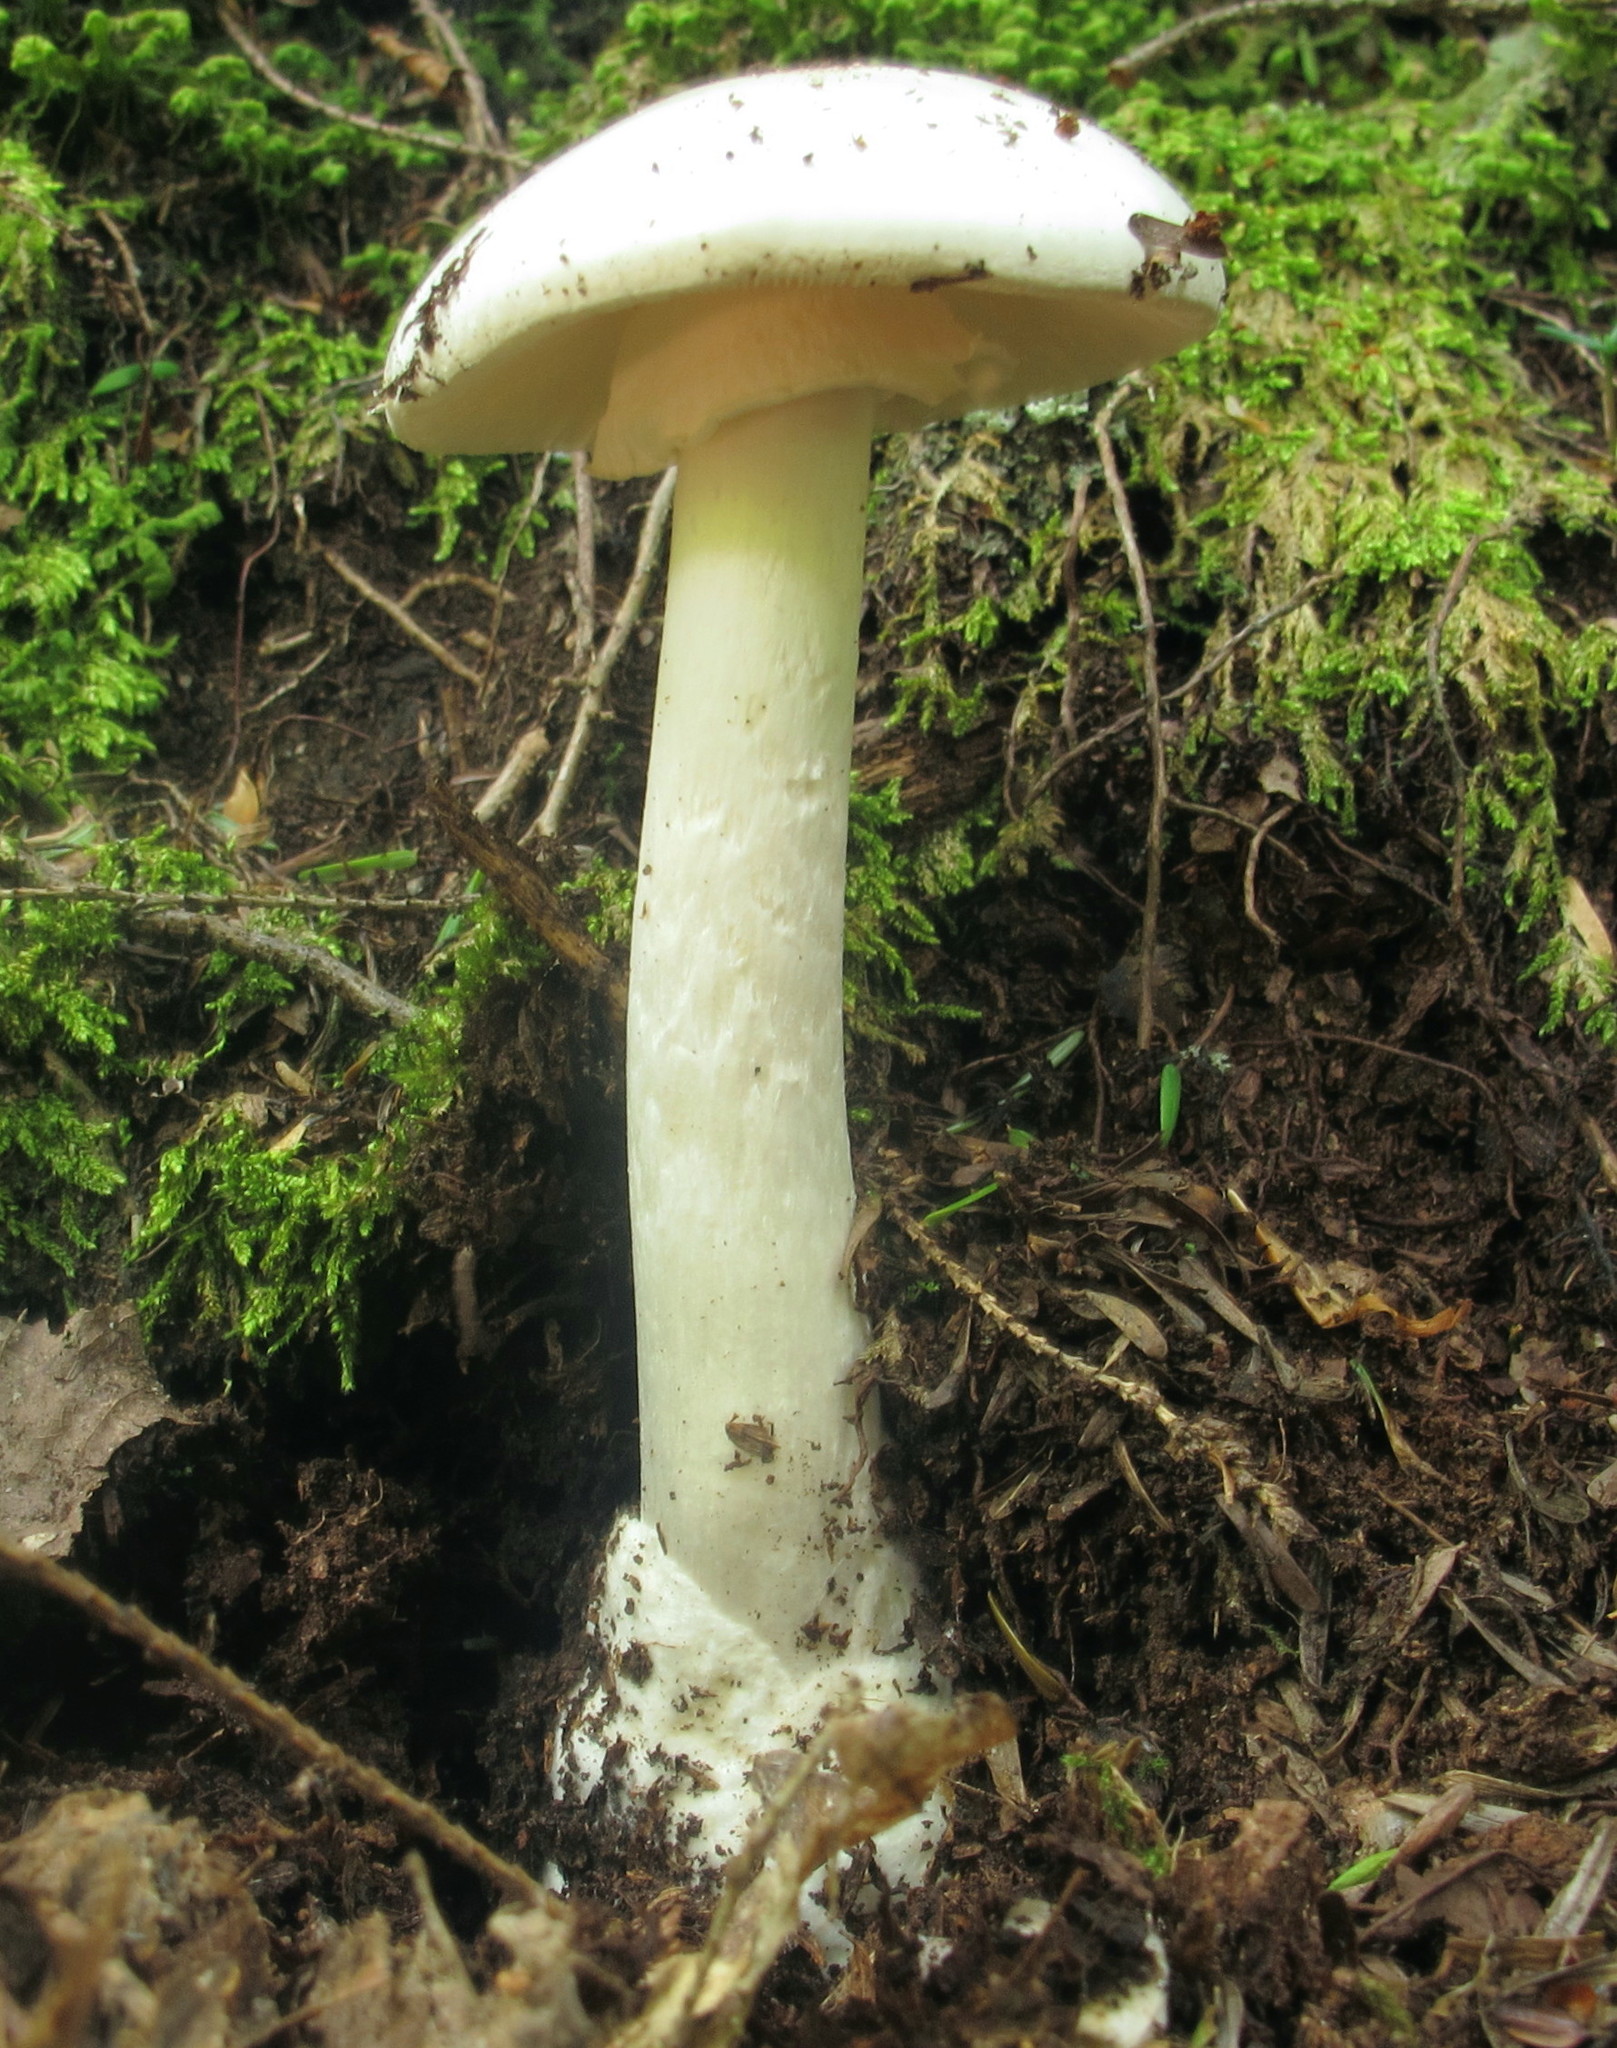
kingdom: Fungi
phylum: Basidiomycota
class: Agaricomycetes
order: Agaricales
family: Amanitaceae
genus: Amanita
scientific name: Amanita bisporigera
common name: Eastern north american destroying angel
